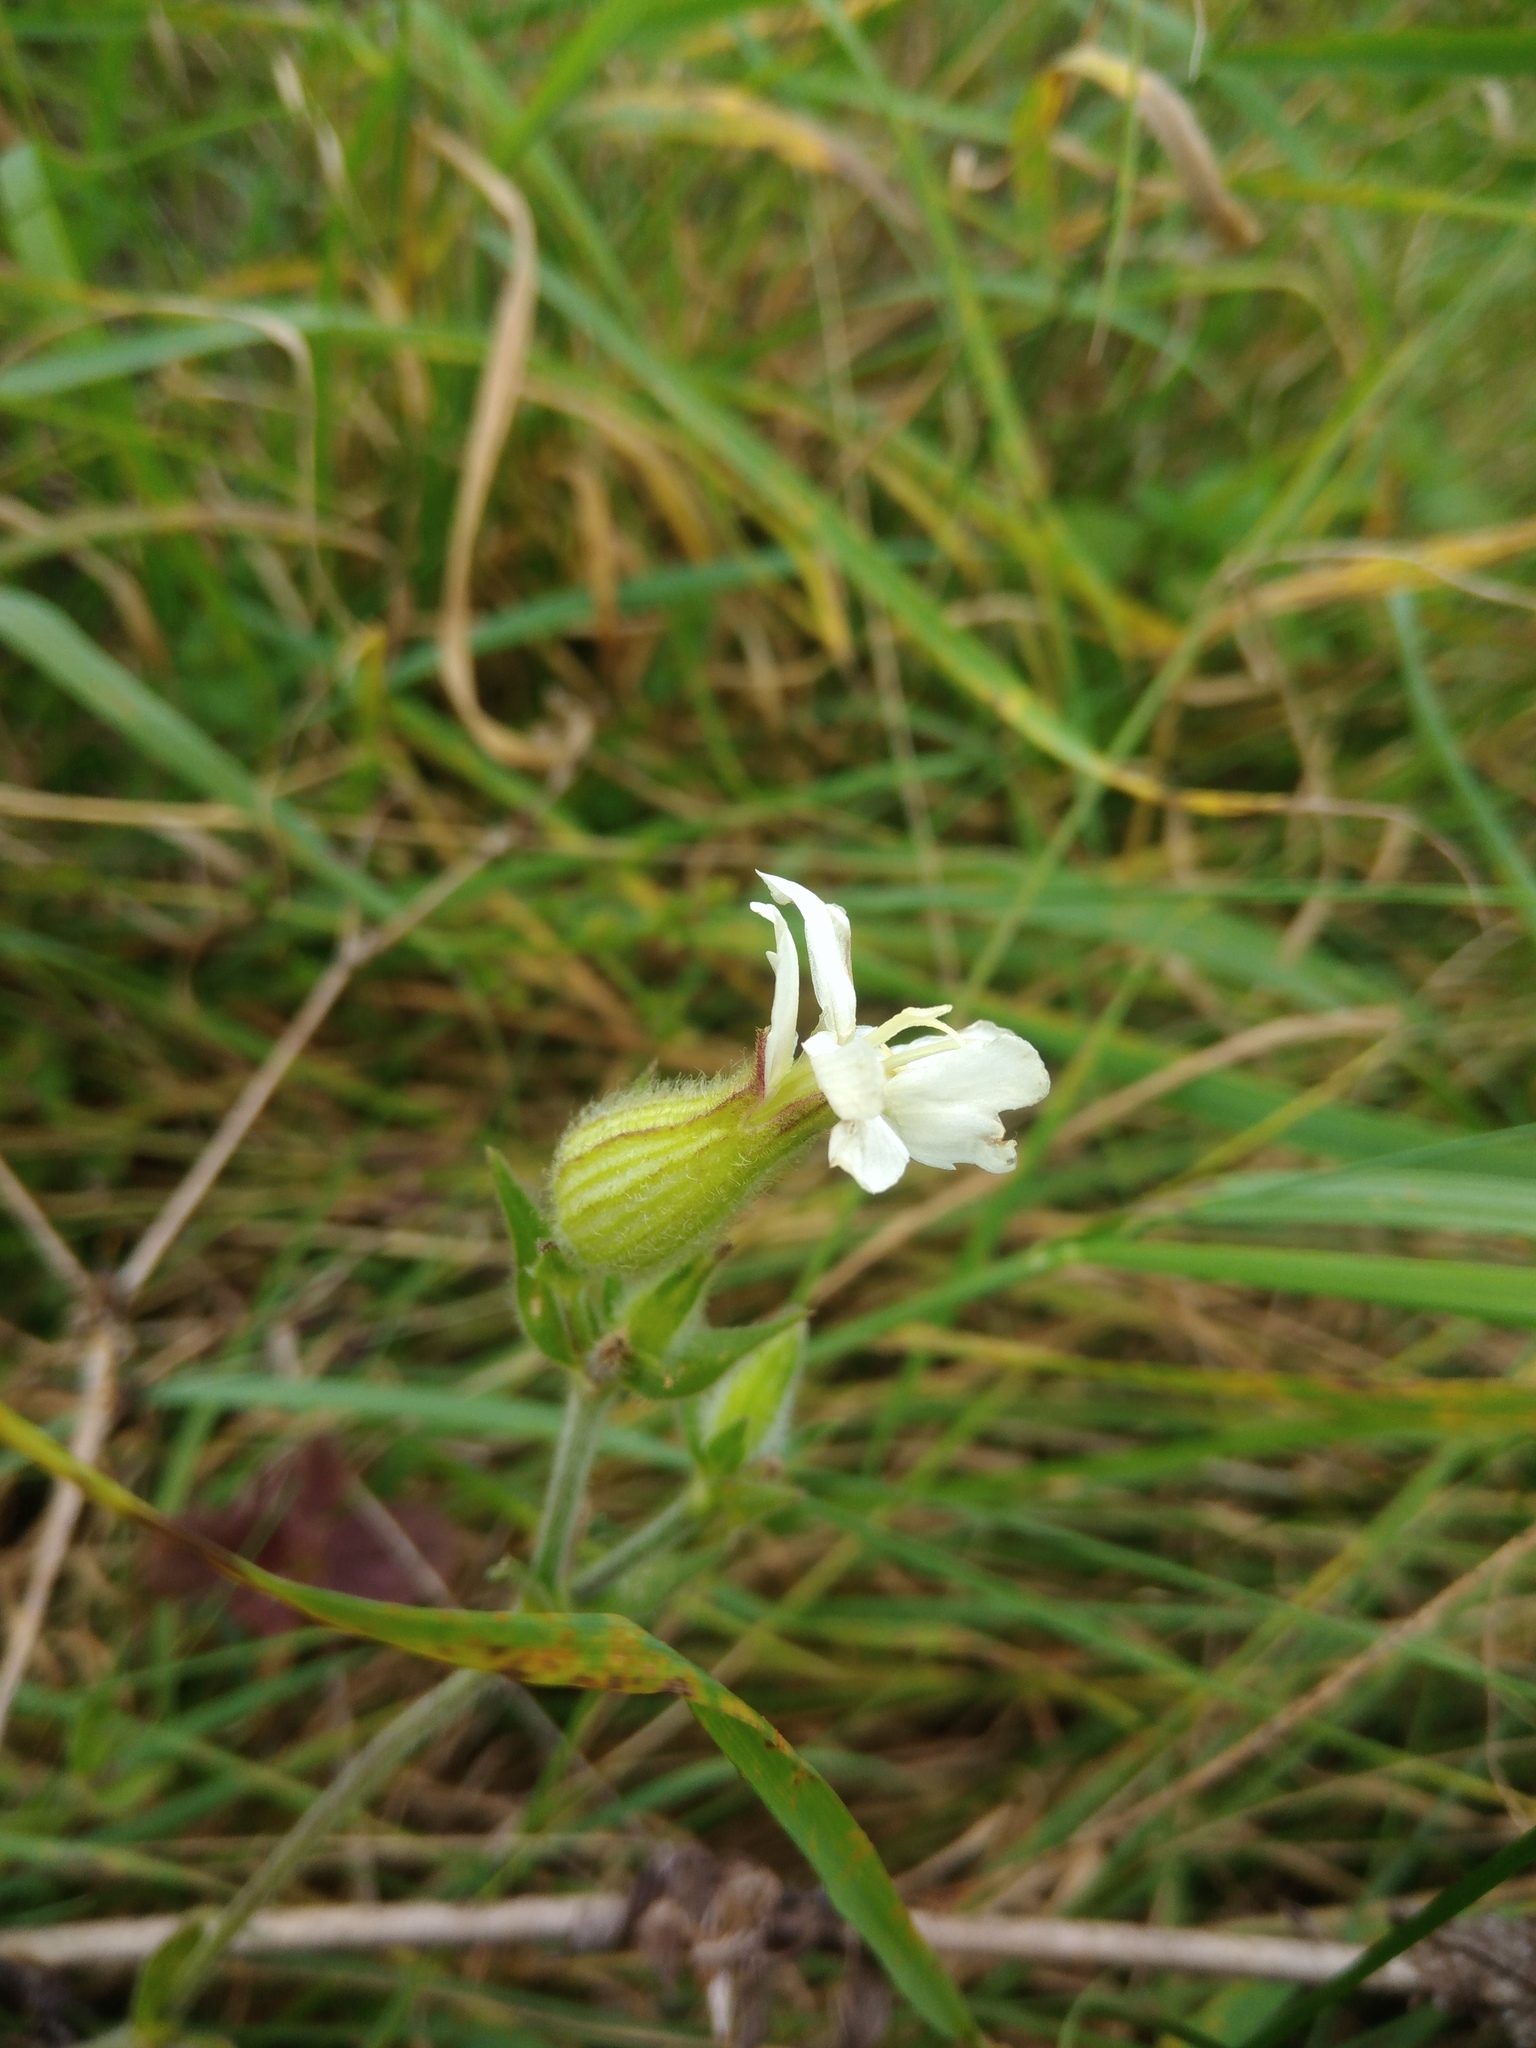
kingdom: Plantae
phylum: Tracheophyta
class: Magnoliopsida
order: Caryophyllales
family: Caryophyllaceae
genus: Silene
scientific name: Silene latifolia
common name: White campion
